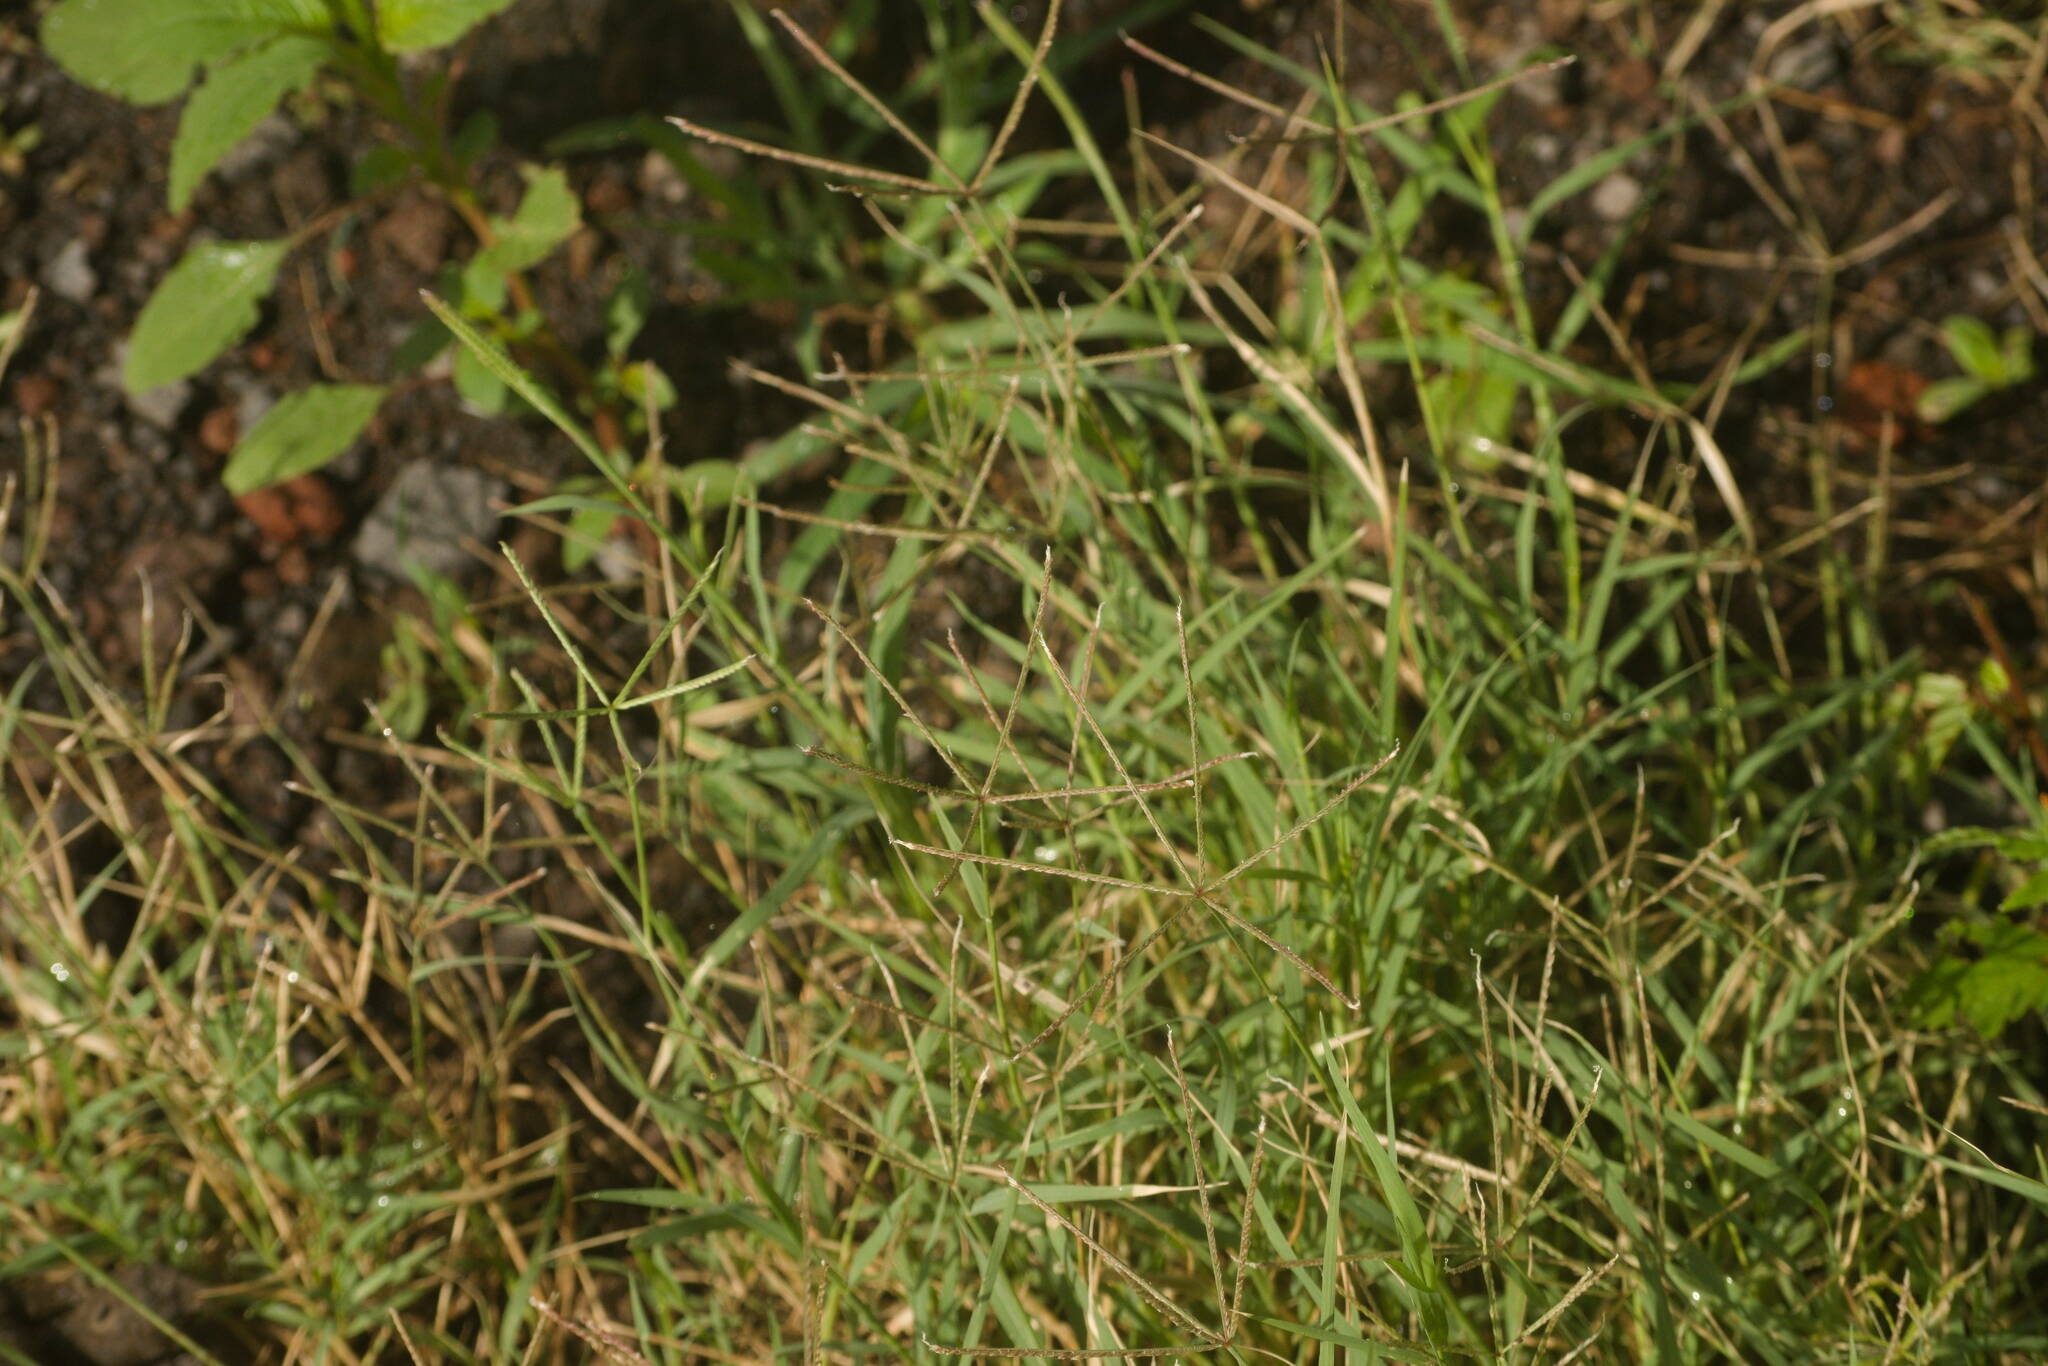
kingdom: Plantae
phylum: Tracheophyta
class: Liliopsida
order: Poales
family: Poaceae
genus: Cynodon
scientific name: Cynodon dactylon
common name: Bermuda grass
